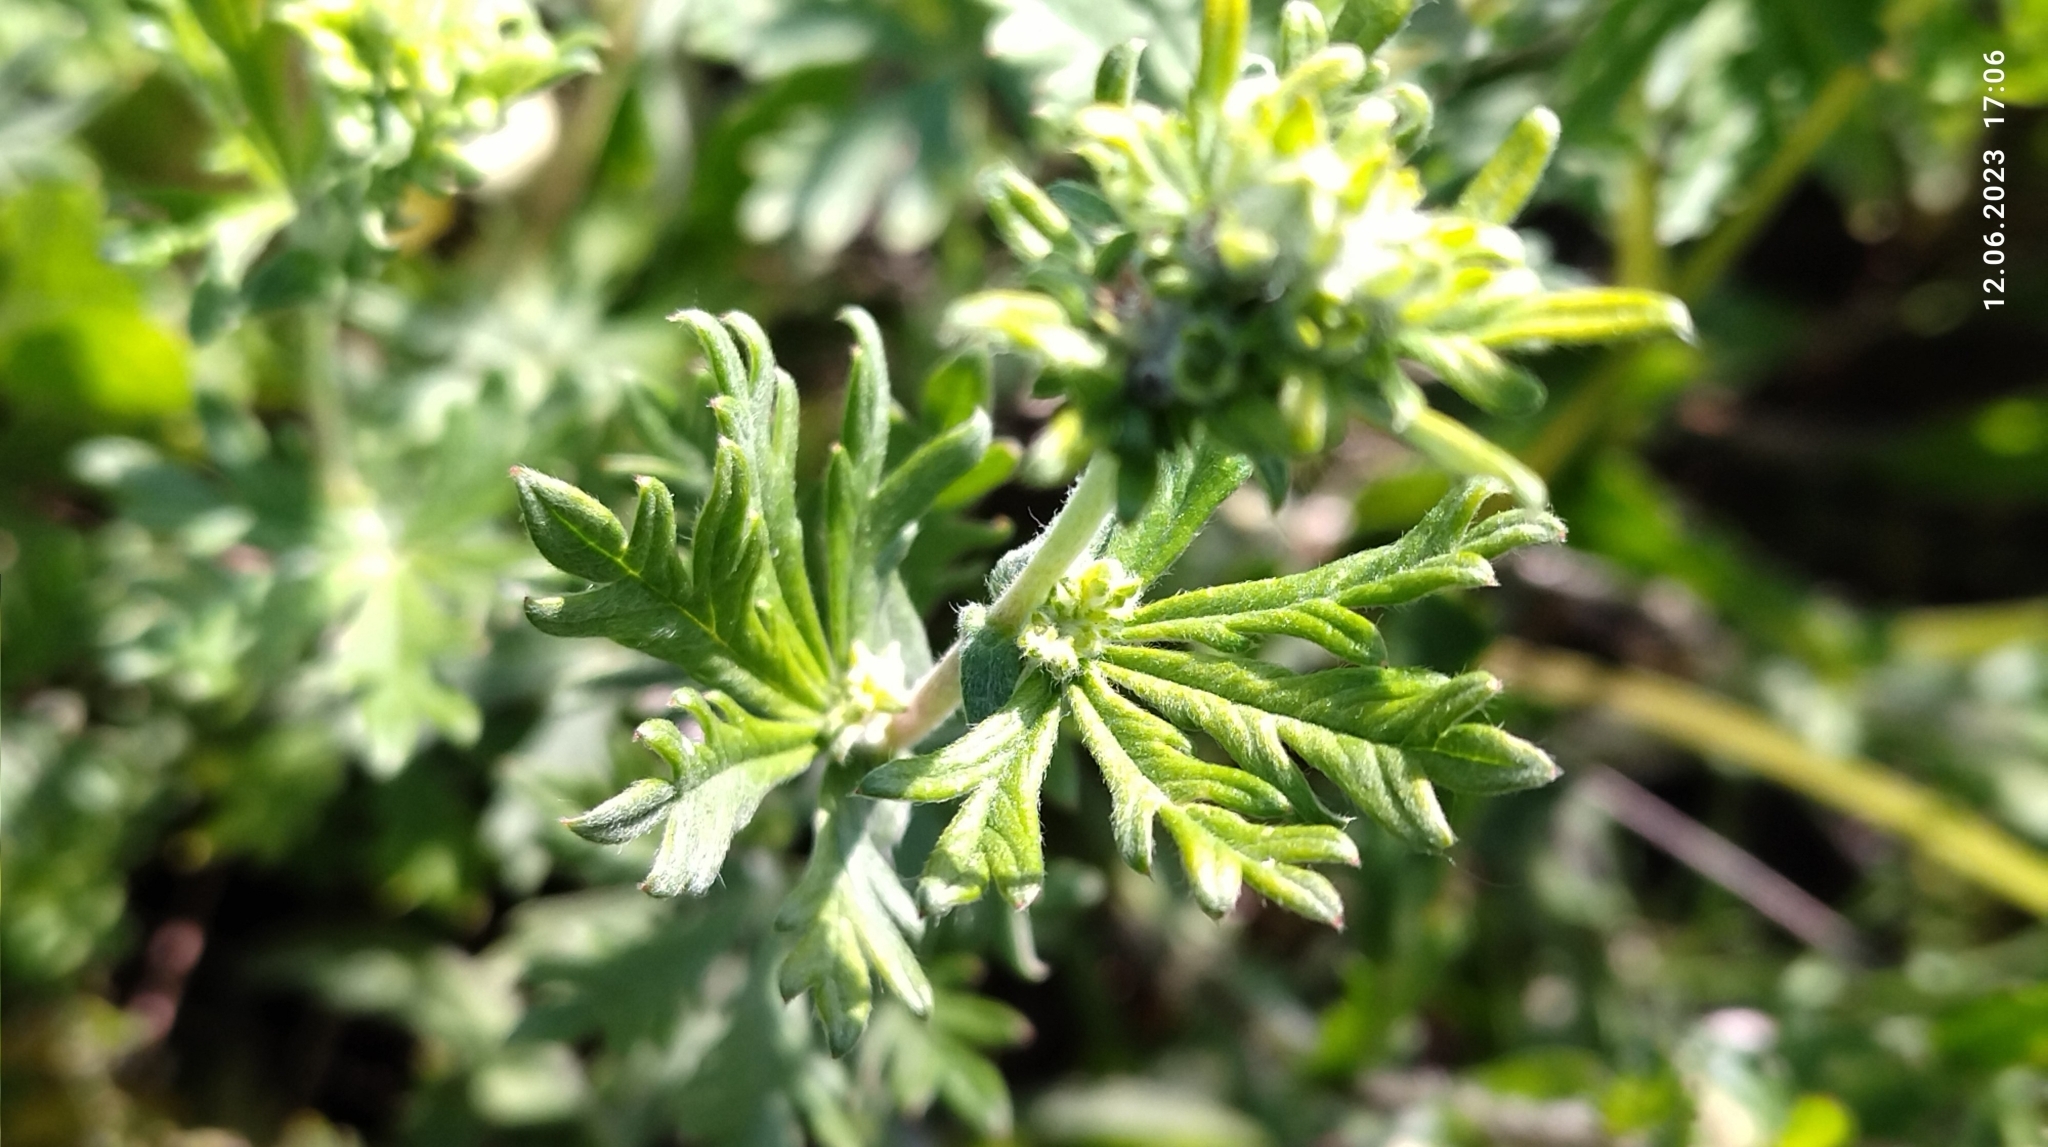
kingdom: Plantae
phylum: Tracheophyta
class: Magnoliopsida
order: Rosales
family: Rosaceae
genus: Potentilla
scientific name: Potentilla argentea
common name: Hoary cinquefoil
